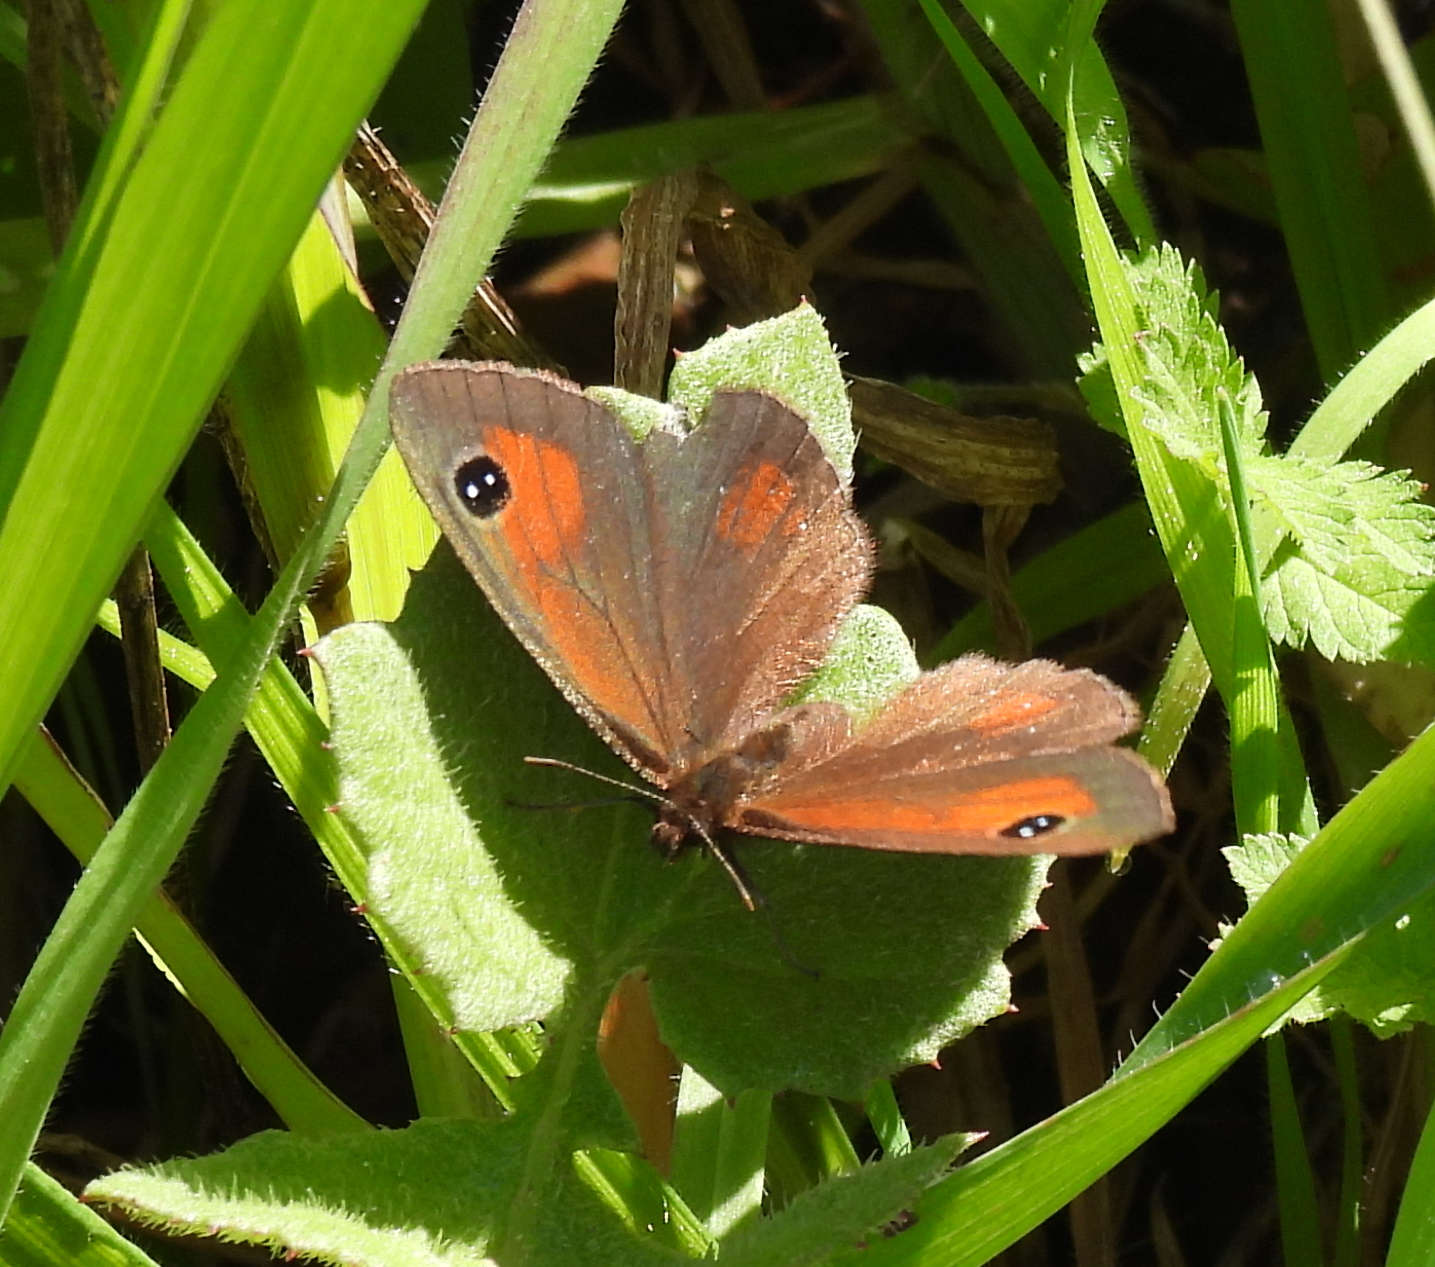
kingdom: Animalia
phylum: Arthropoda
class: Insecta
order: Lepidoptera
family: Nymphalidae
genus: Erebia
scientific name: Erebia
